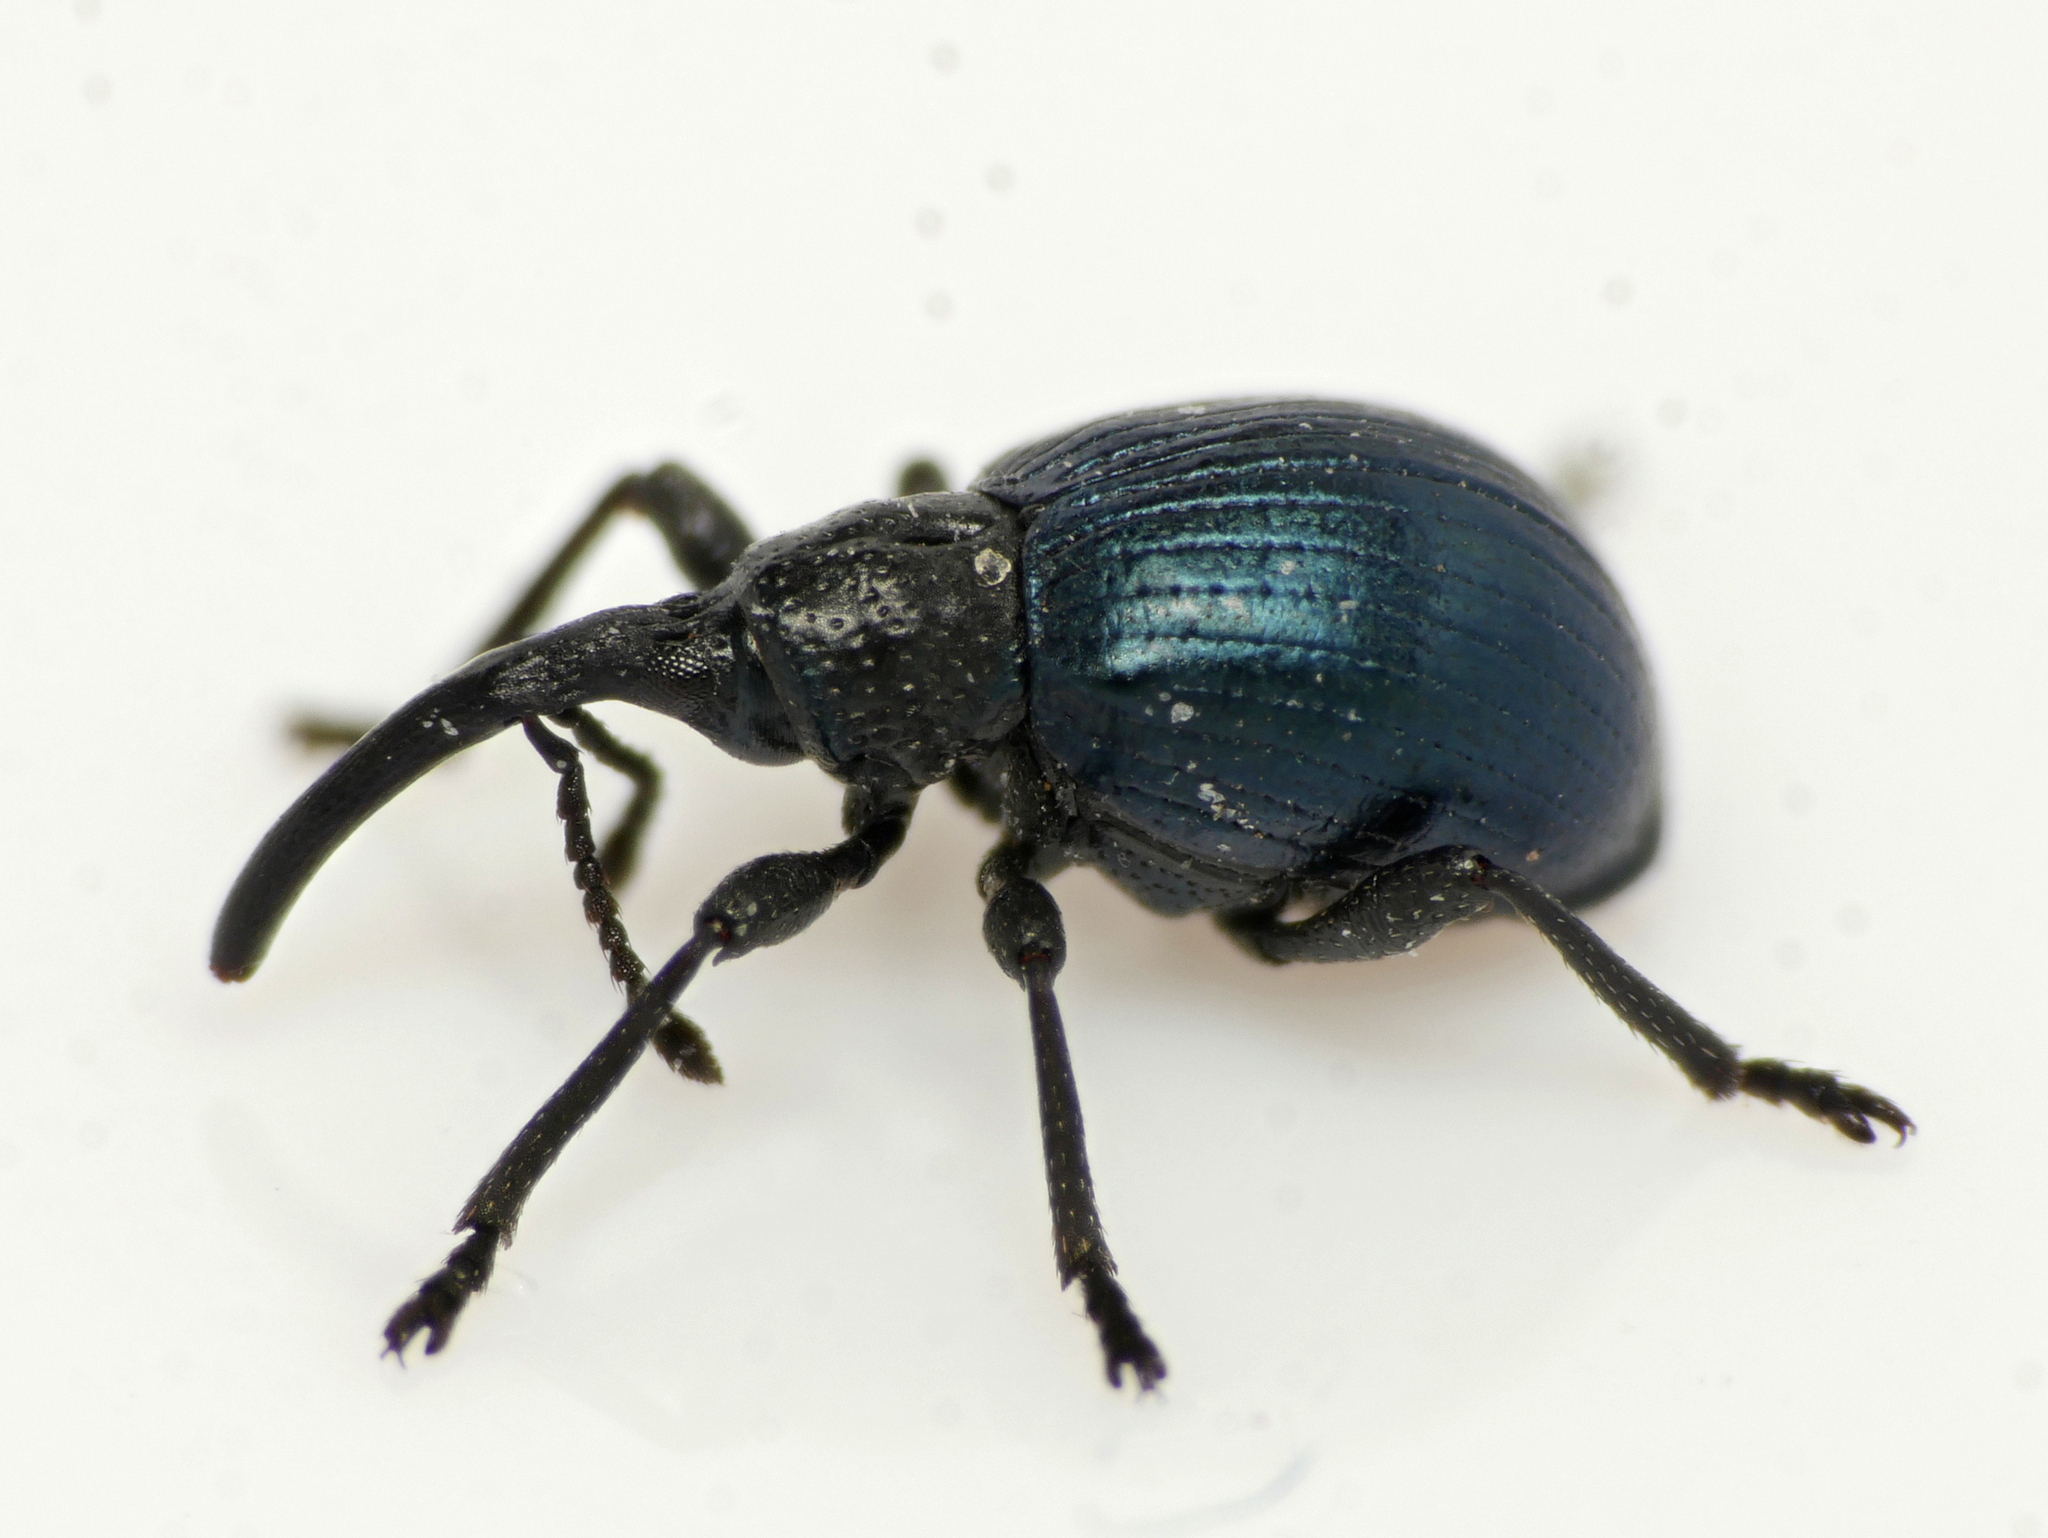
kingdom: Animalia
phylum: Arthropoda
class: Insecta
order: Coleoptera
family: Apionidae
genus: Taphrotopium
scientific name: Taphrotopium sulcifrons
